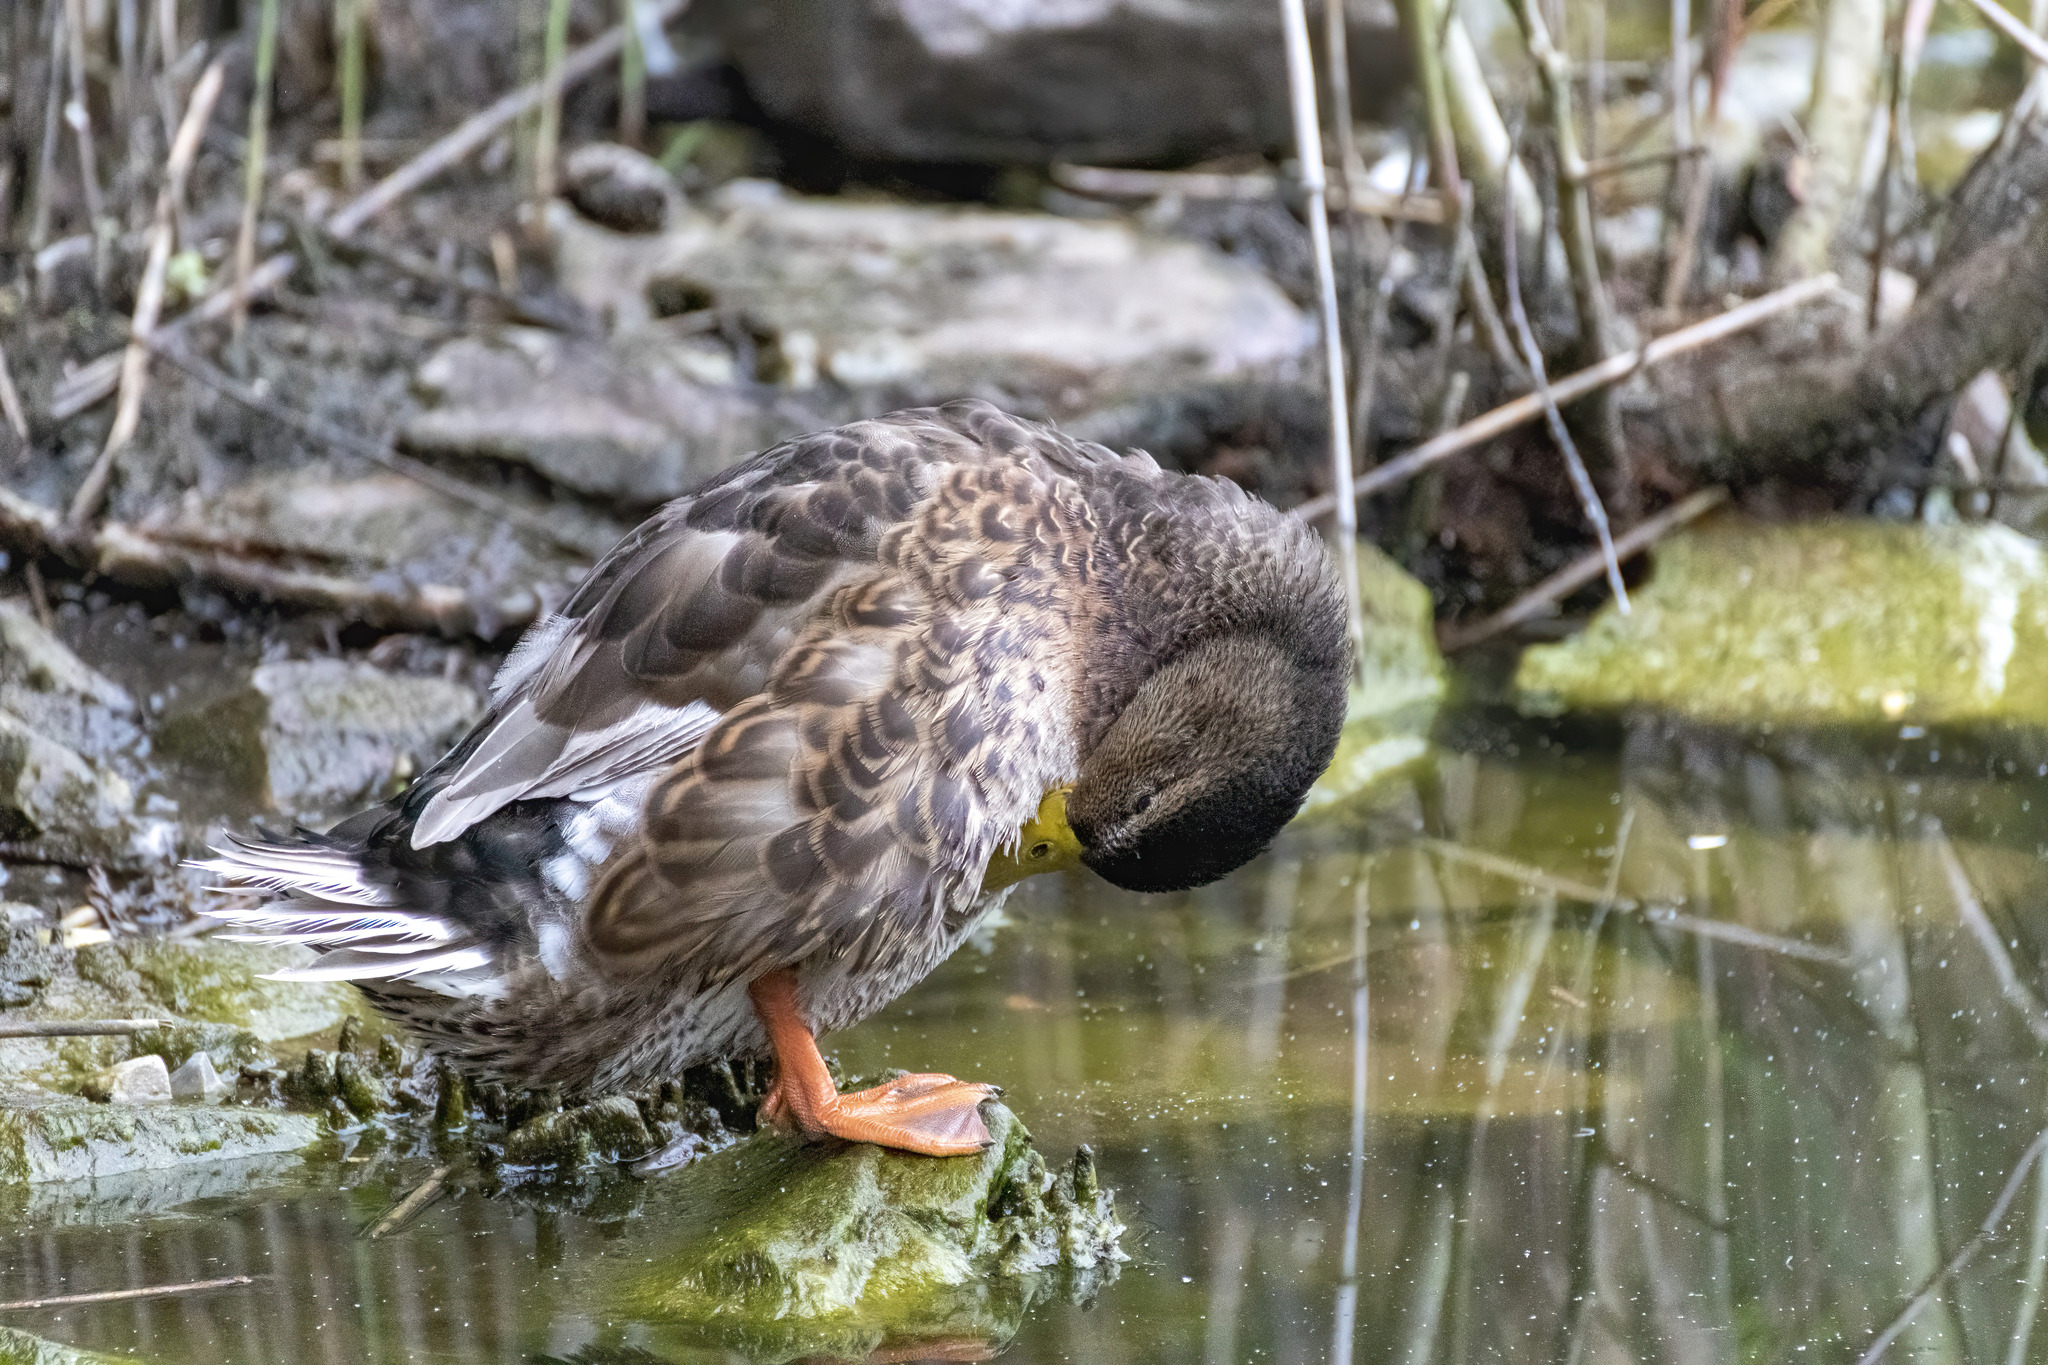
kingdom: Animalia
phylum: Chordata
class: Aves
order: Anseriformes
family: Anatidae
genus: Anas
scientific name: Anas platyrhynchos
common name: Mallard
